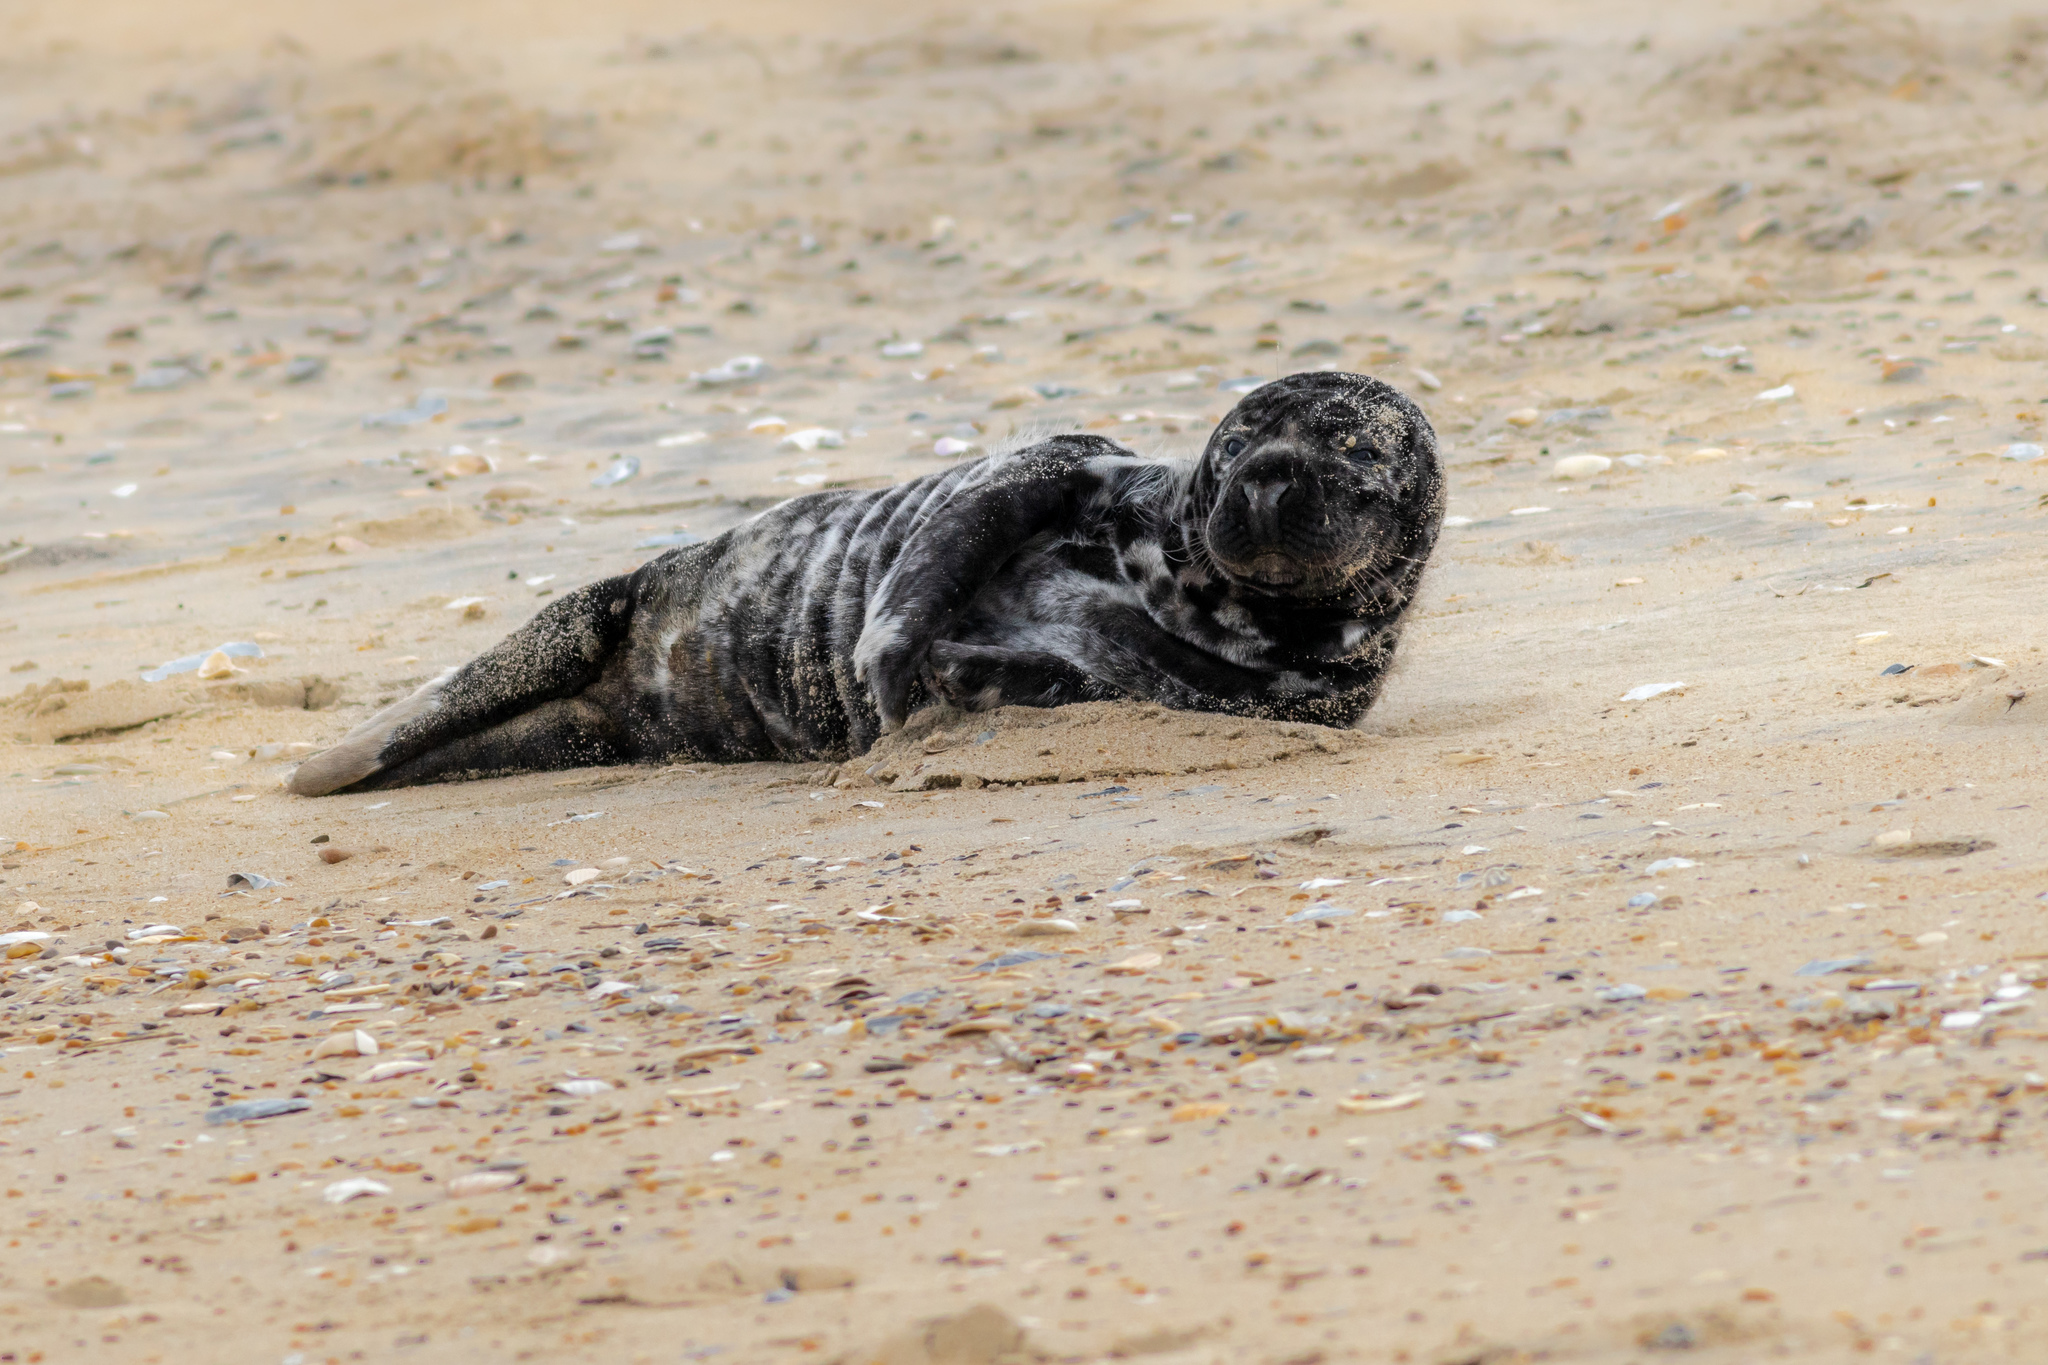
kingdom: Animalia
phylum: Chordata
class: Mammalia
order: Carnivora
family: Phocidae
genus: Halichoerus
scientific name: Halichoerus grypus
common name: Grey seal
